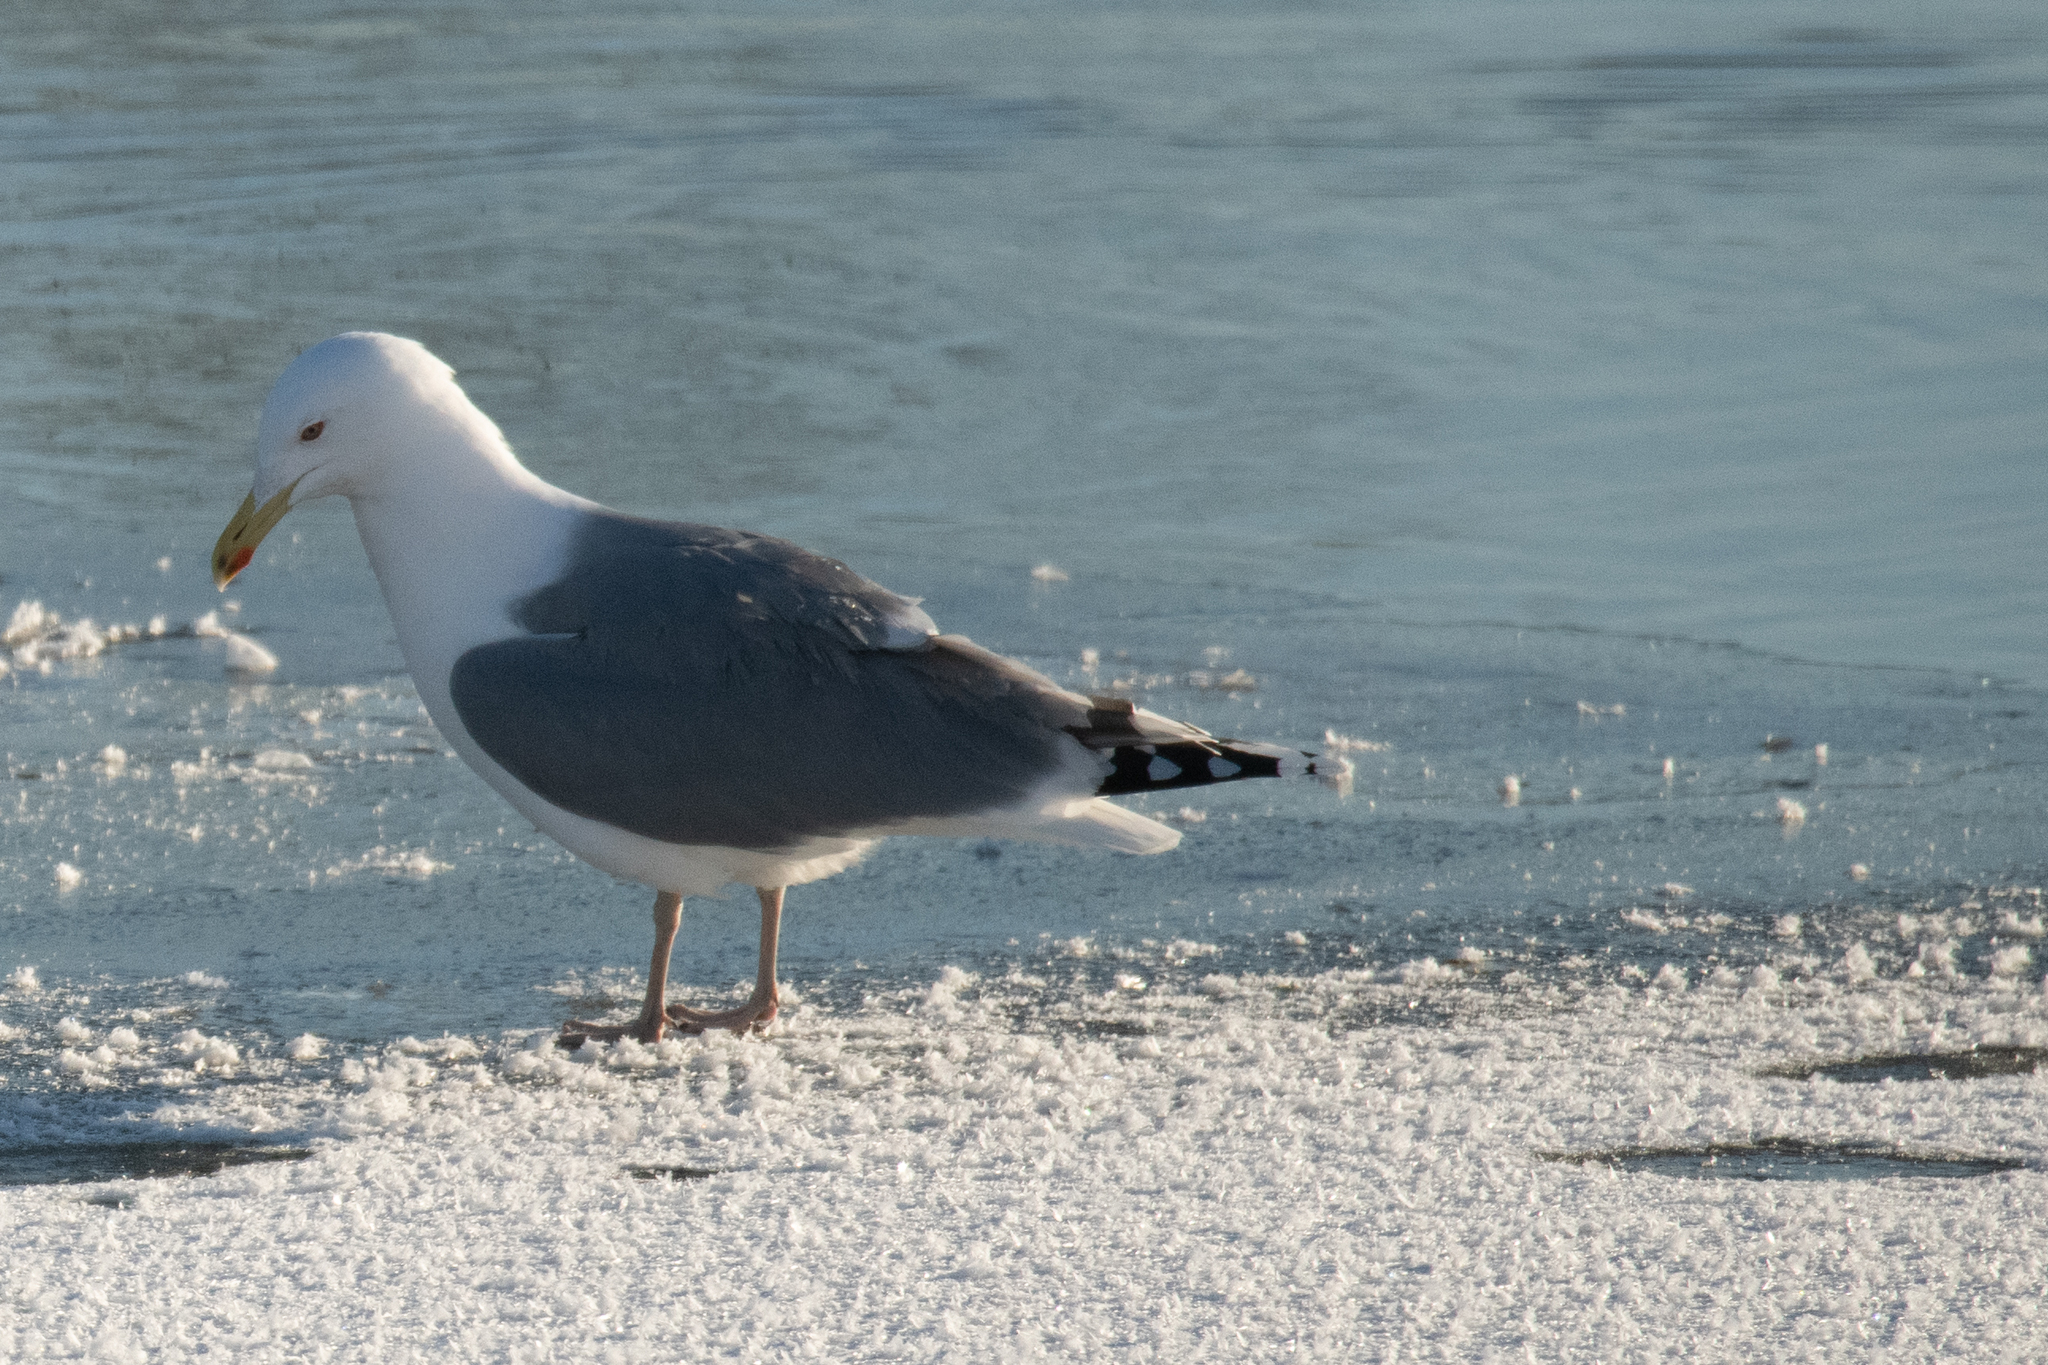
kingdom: Animalia
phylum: Chordata
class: Aves
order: Charadriiformes
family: Laridae
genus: Larus
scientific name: Larus argentatus
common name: Herring gull
